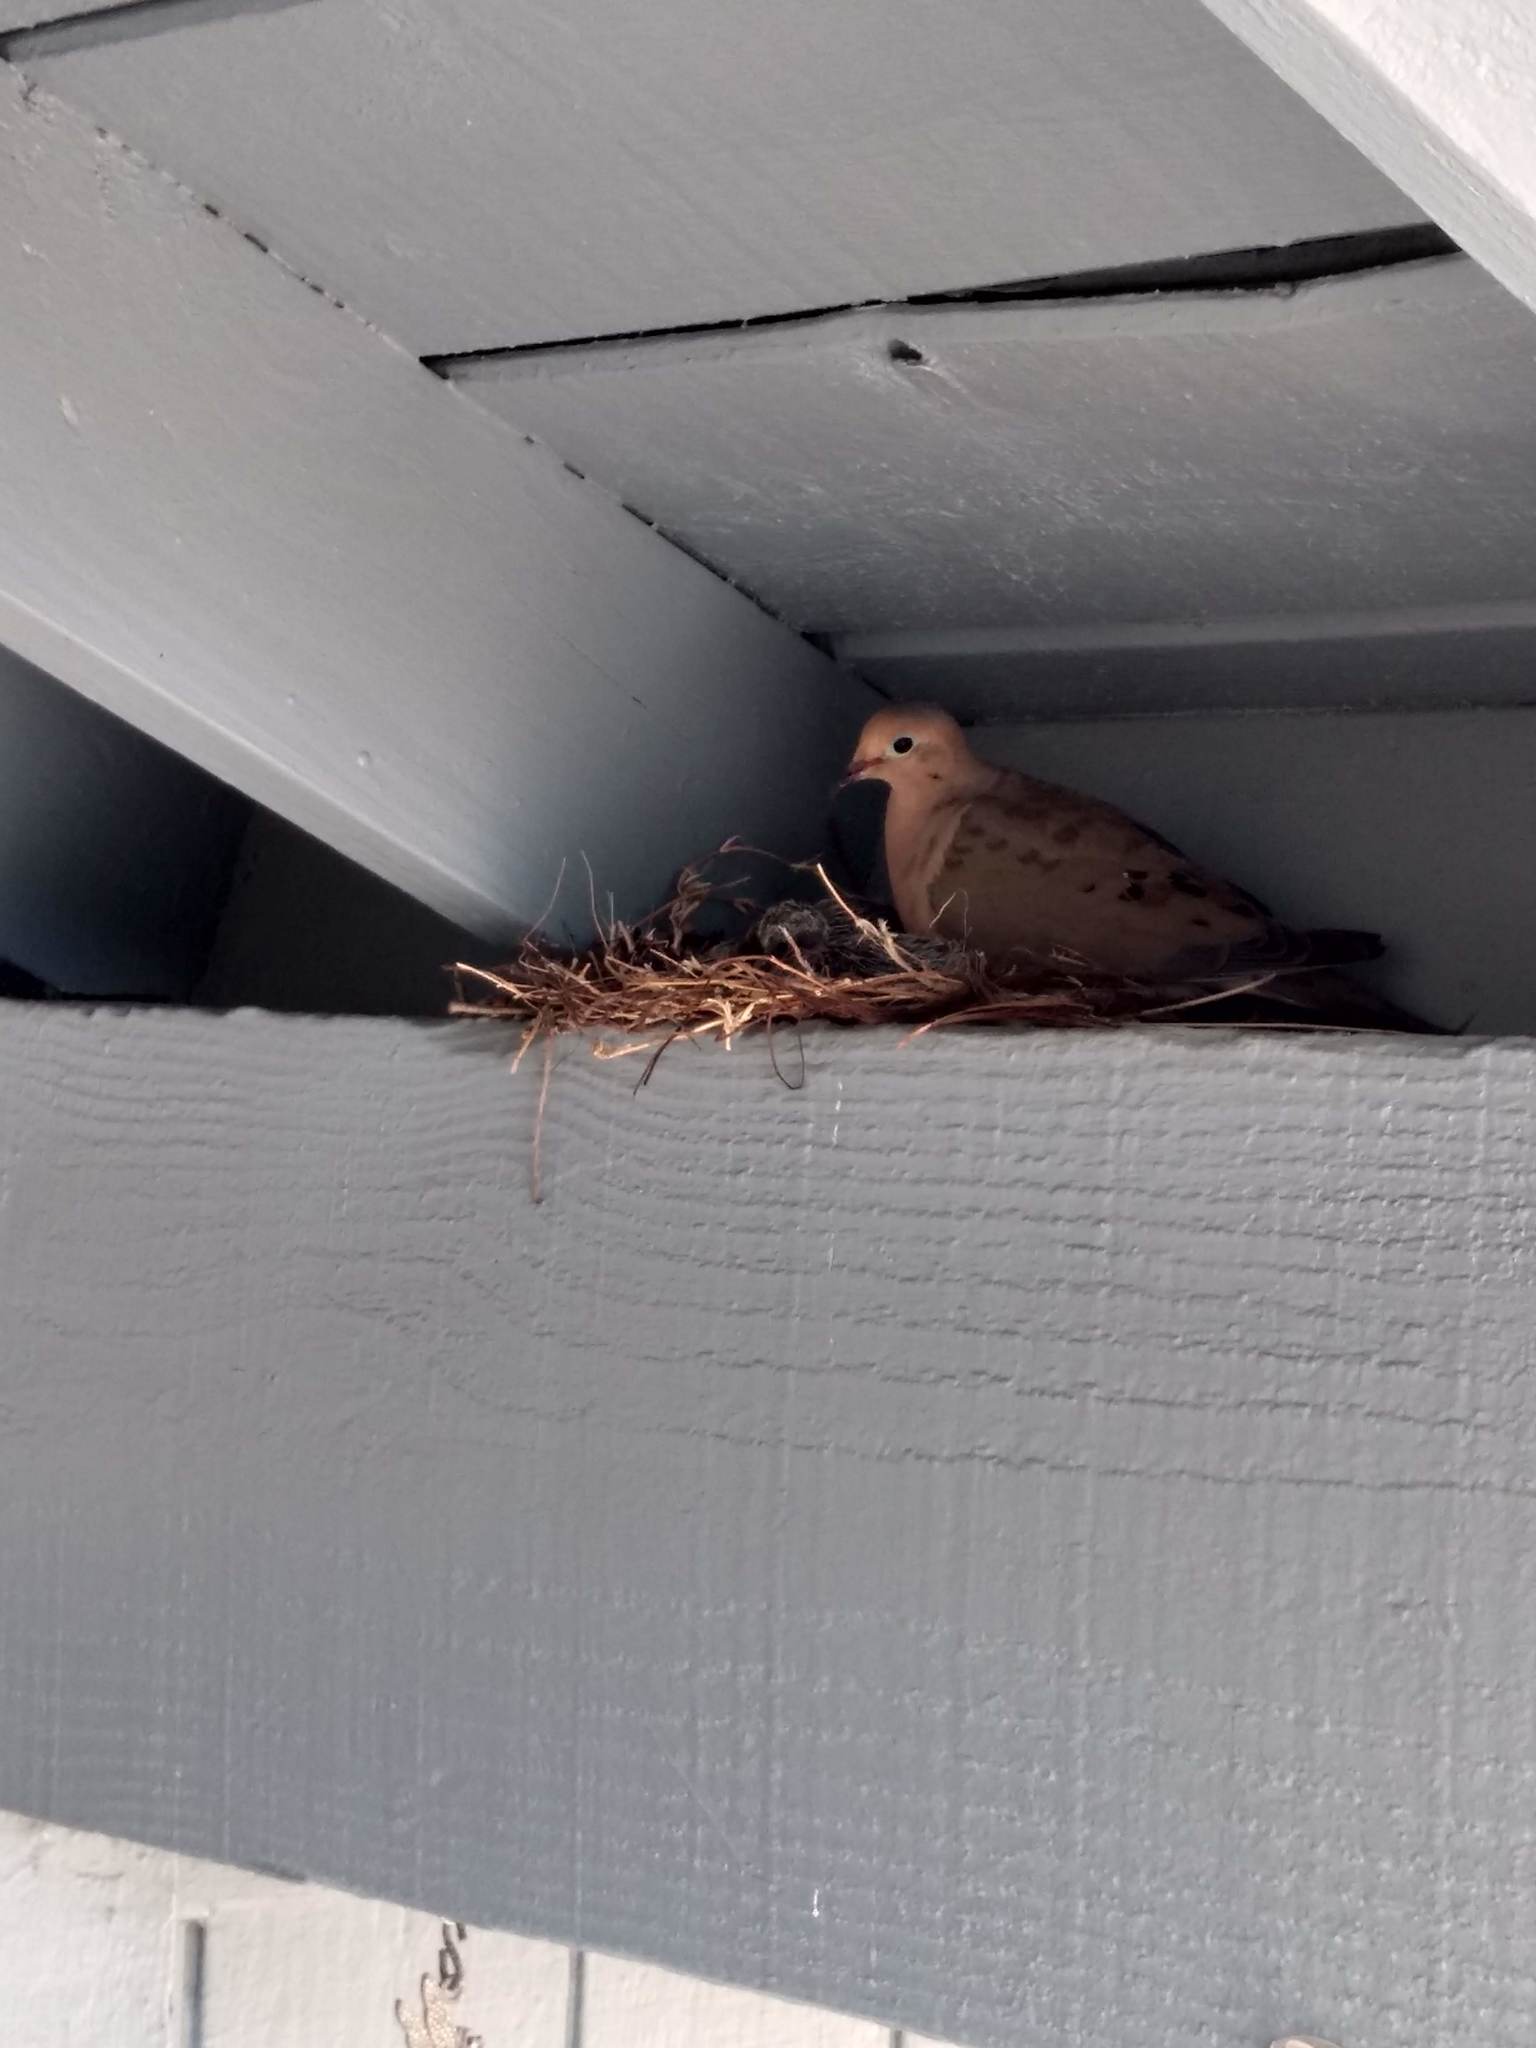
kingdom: Animalia
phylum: Chordata
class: Aves
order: Columbiformes
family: Columbidae
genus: Zenaida
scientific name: Zenaida macroura
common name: Mourning dove
